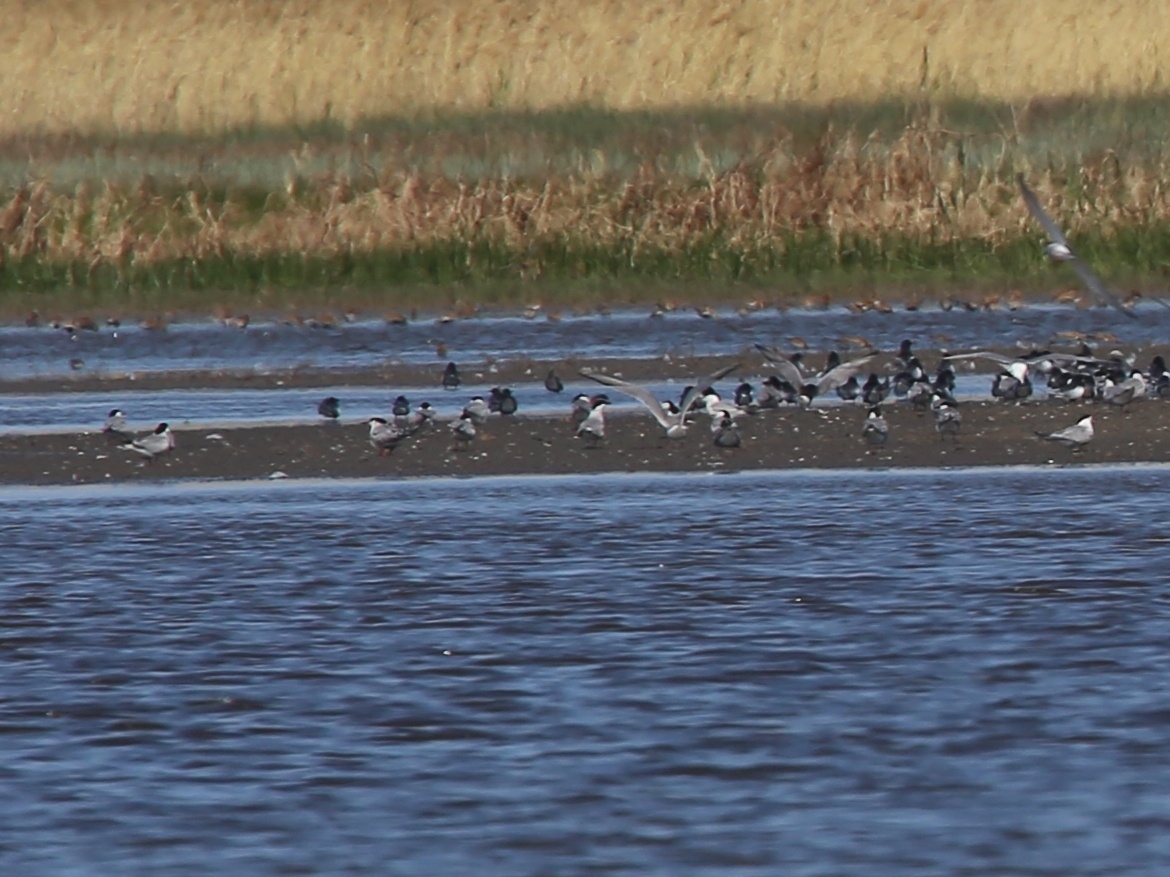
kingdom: Animalia
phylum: Chordata
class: Aves
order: Charadriiformes
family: Laridae
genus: Sterna
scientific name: Sterna hirundo
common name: Common tern
